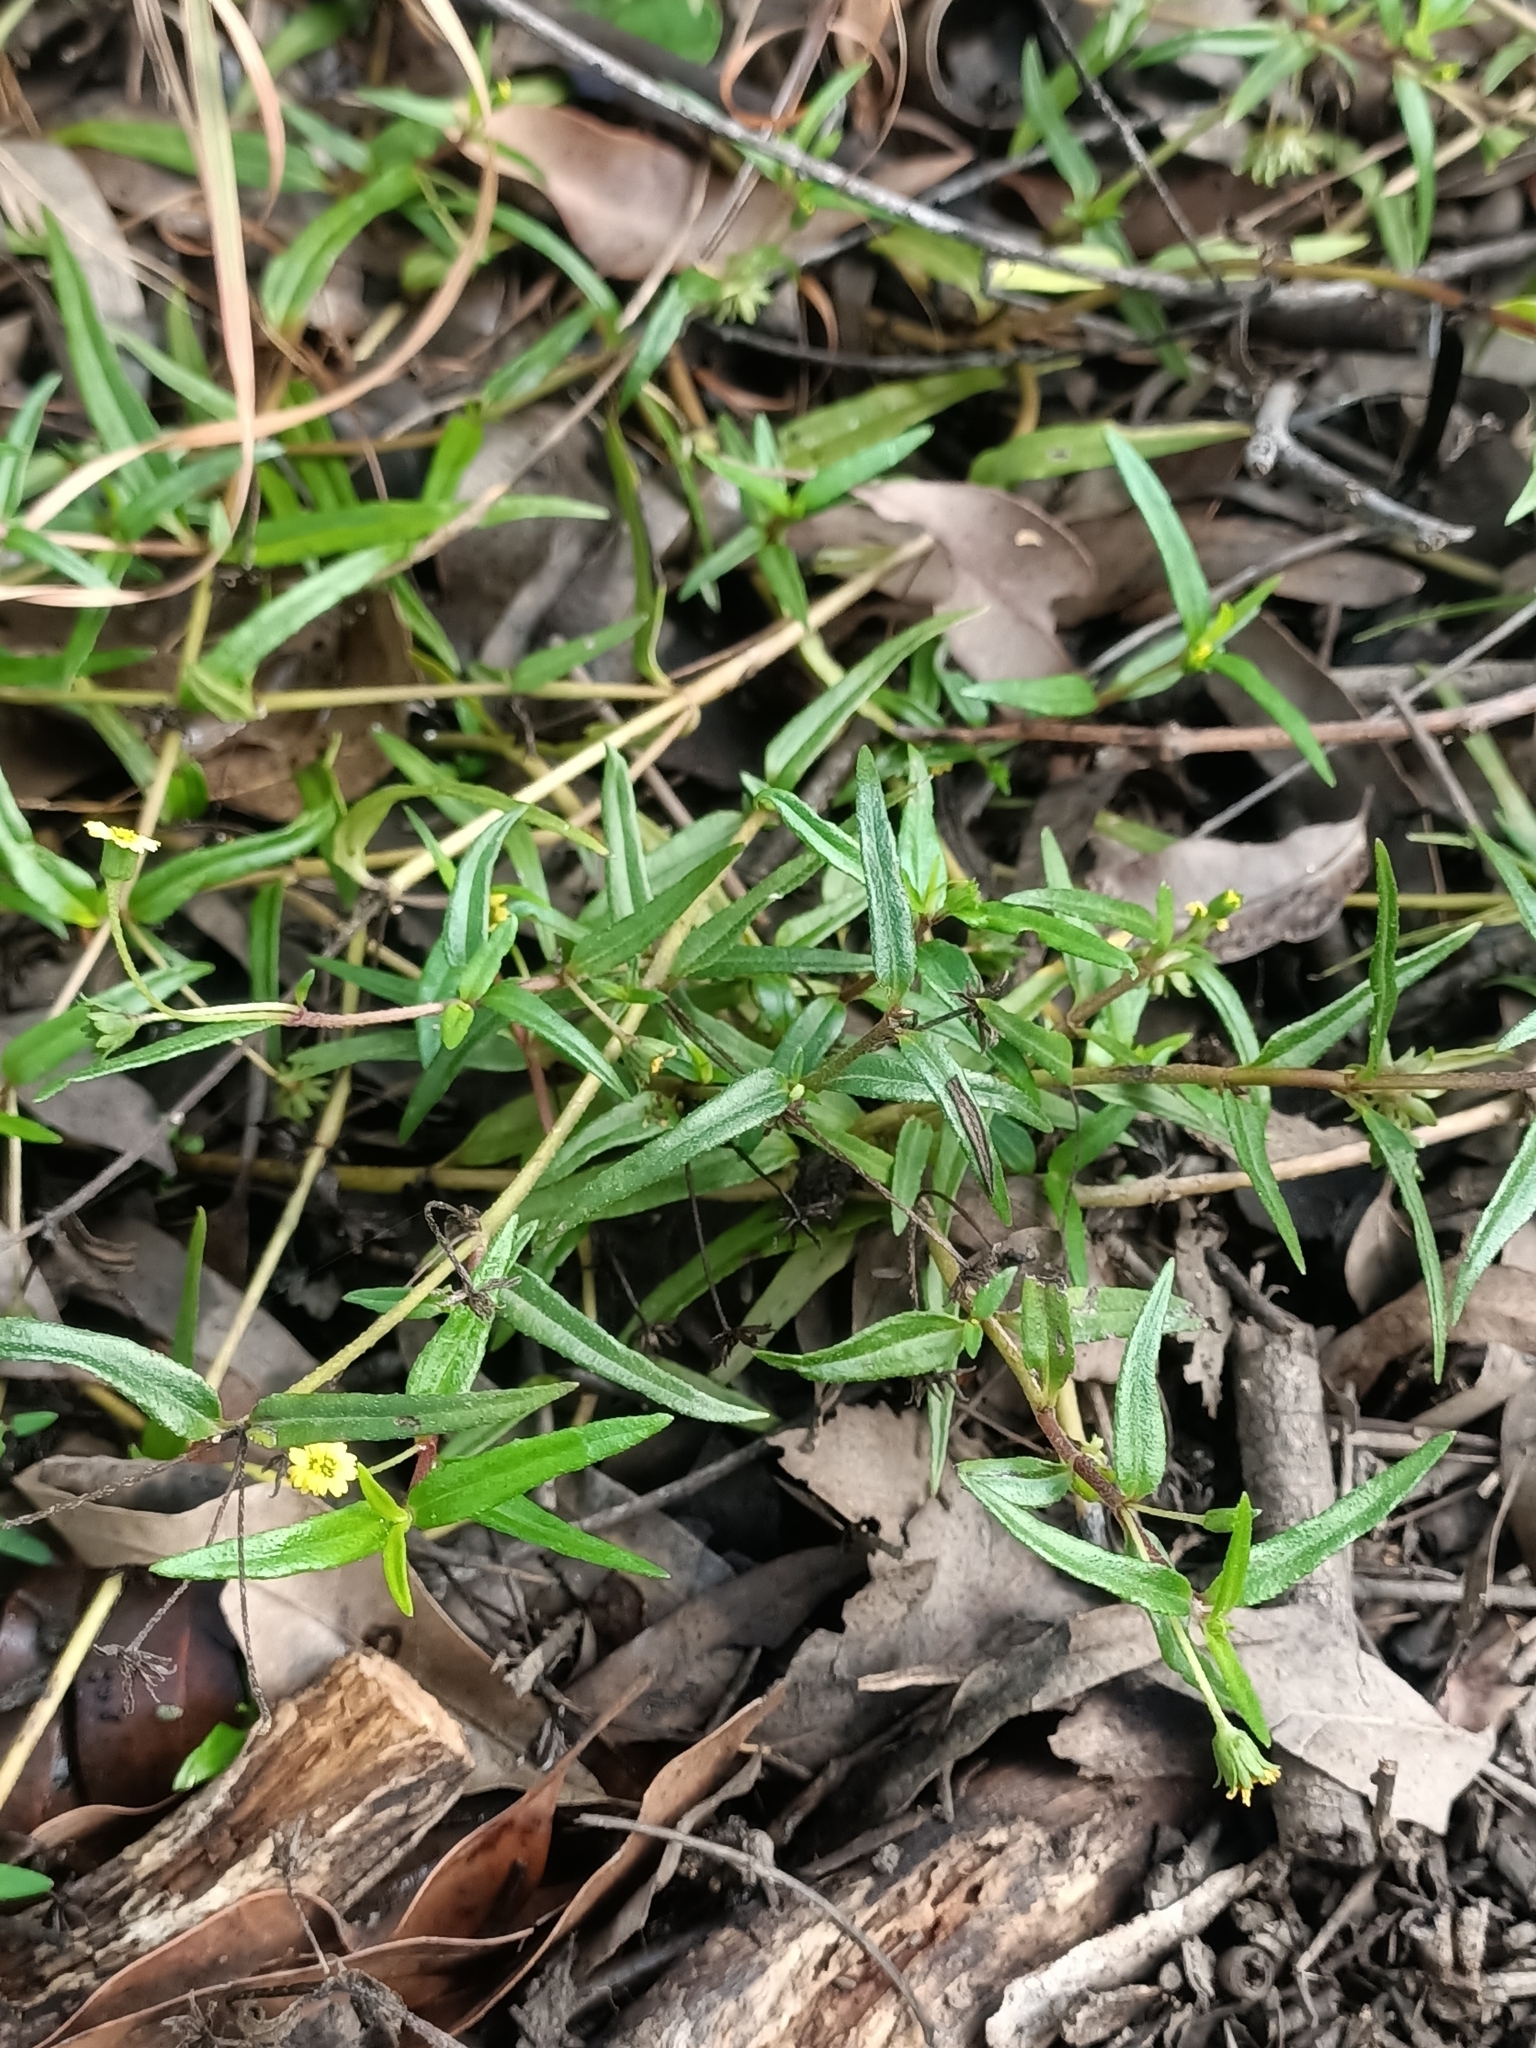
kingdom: Plantae
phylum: Tracheophyta
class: Magnoliopsida
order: Asterales
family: Asteraceae
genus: Eclipta
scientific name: Eclipta platyglossa
